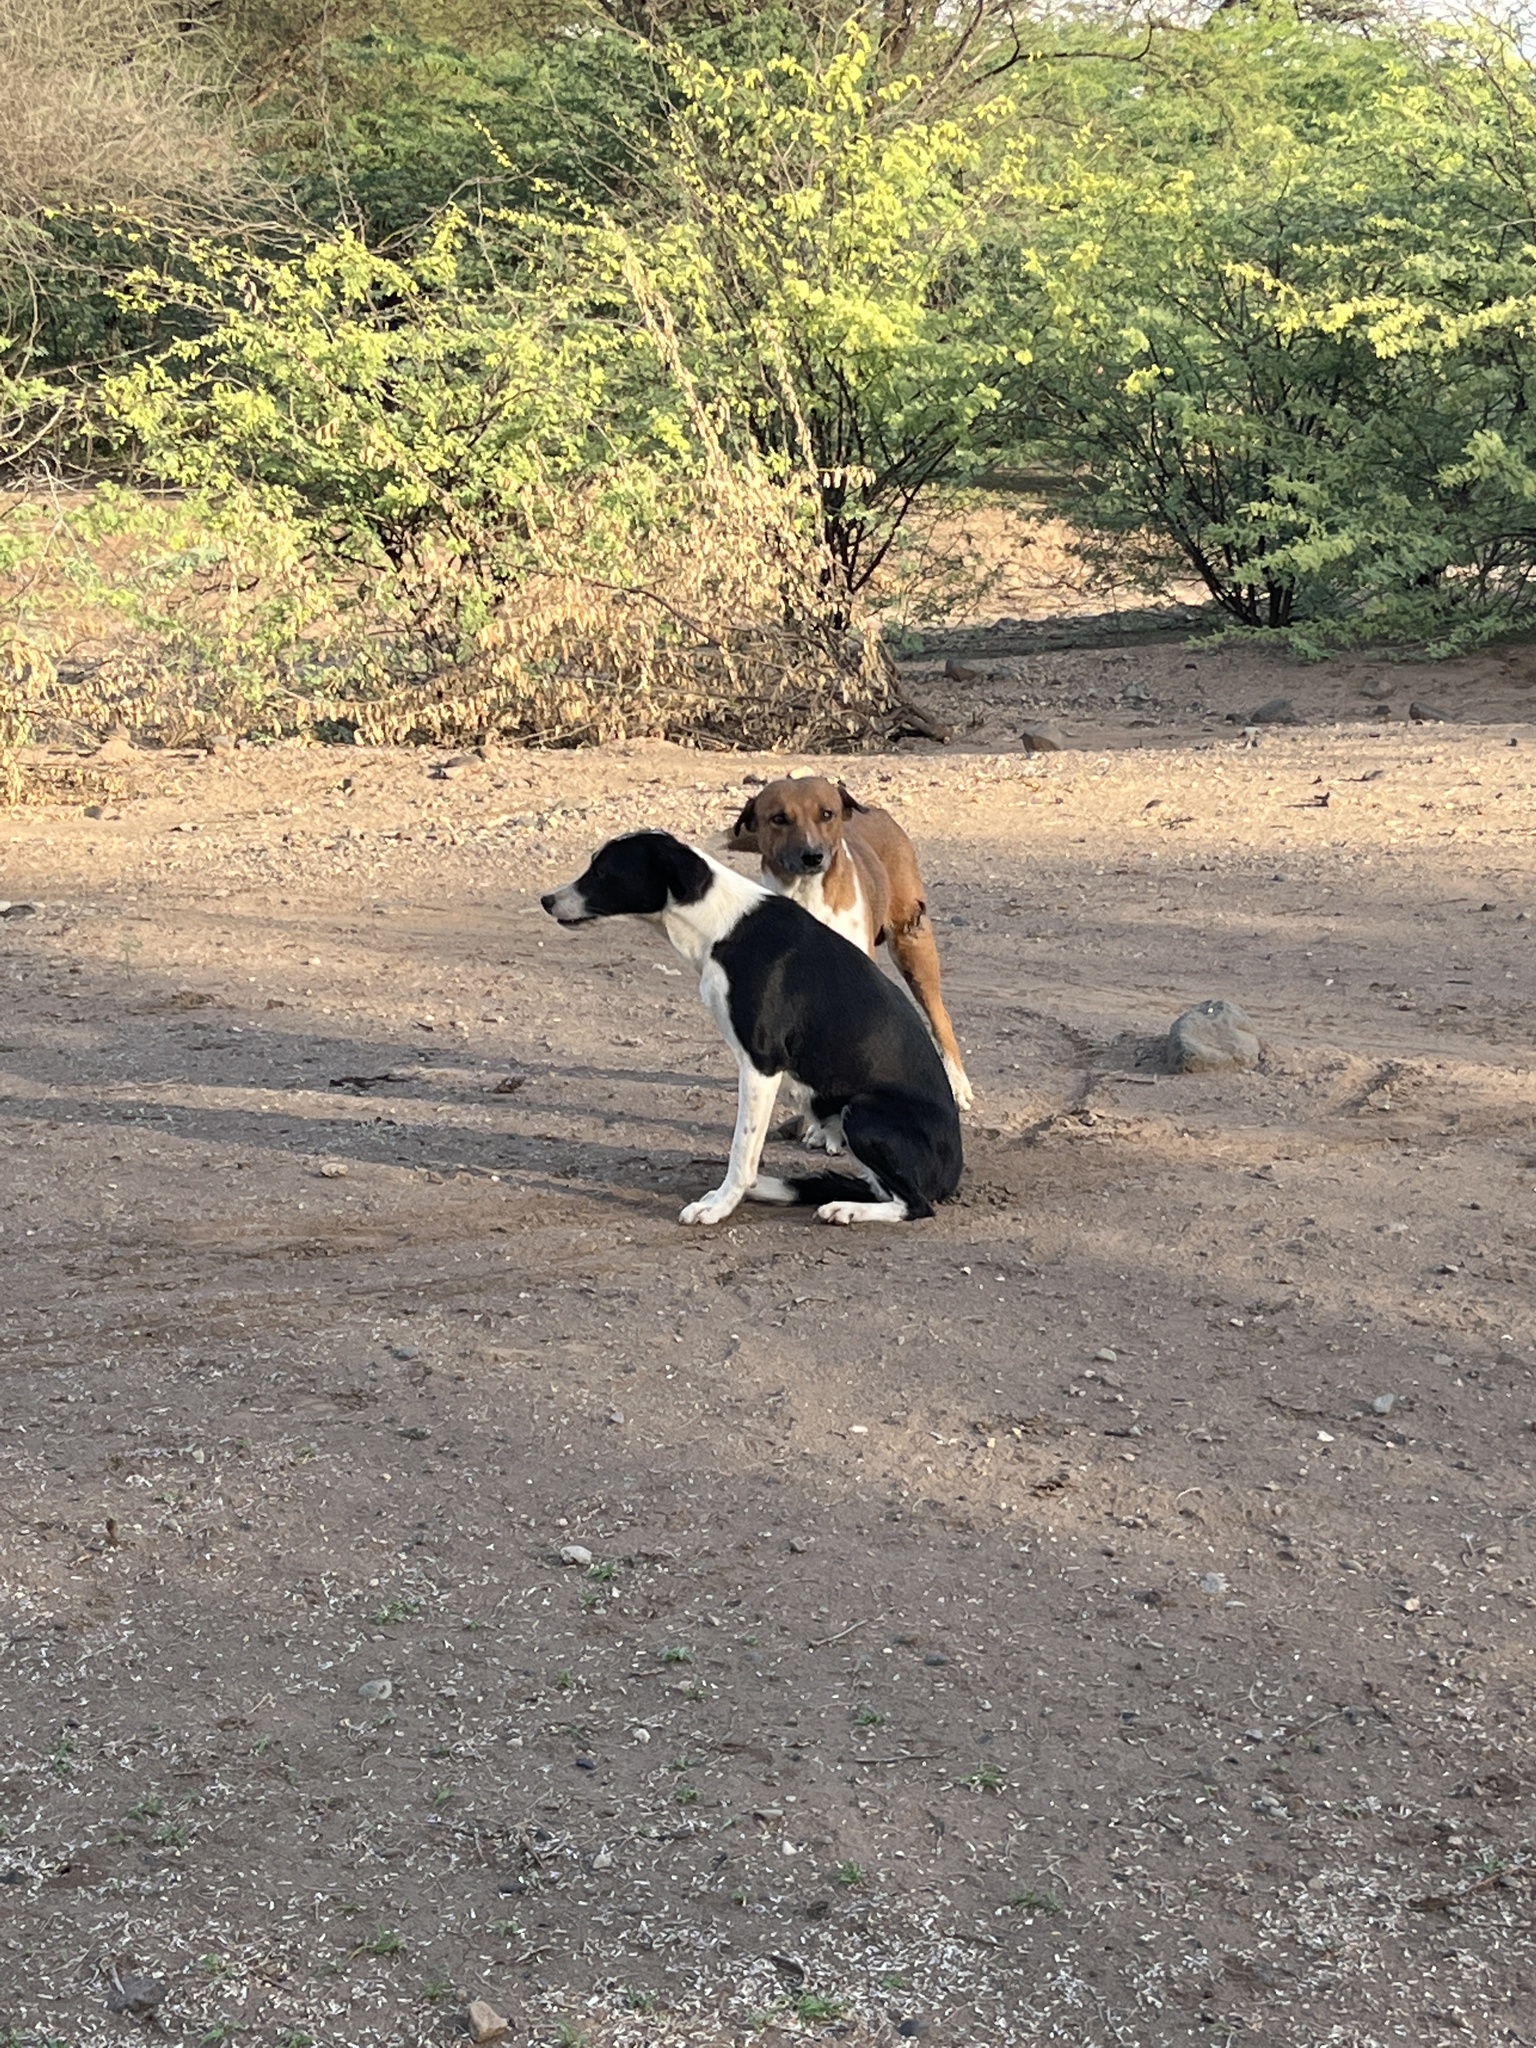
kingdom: Animalia
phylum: Chordata
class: Mammalia
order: Carnivora
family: Canidae
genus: Canis
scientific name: Canis lupus
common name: Gray wolf
